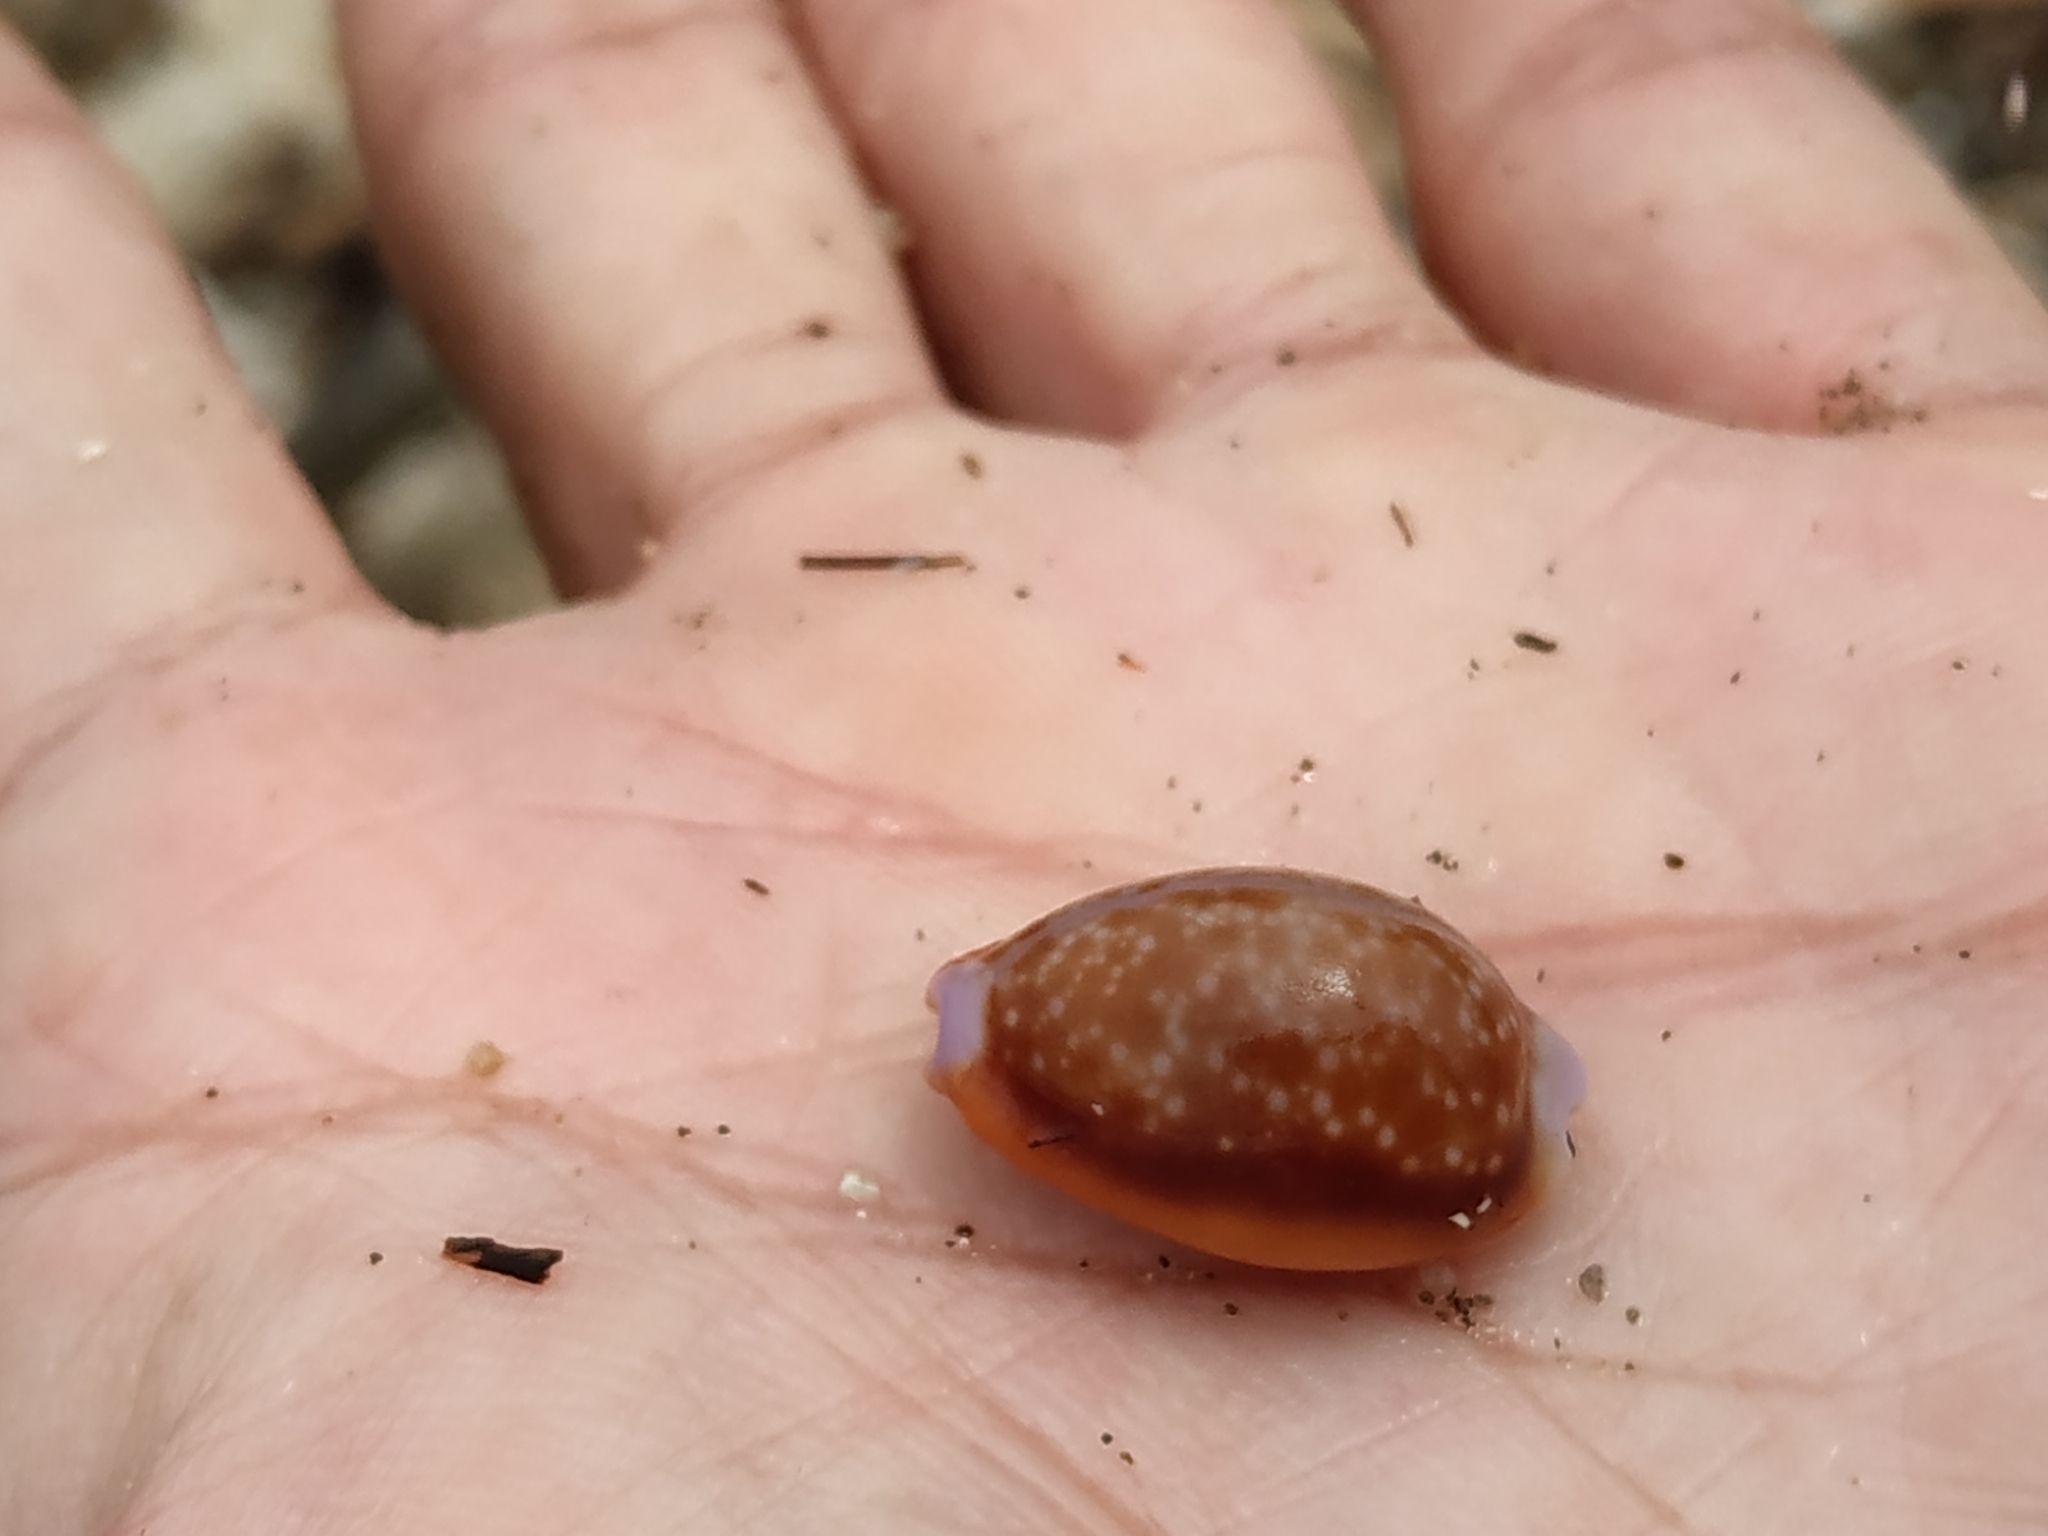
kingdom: Animalia
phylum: Mollusca
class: Gastropoda
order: Littorinimorpha
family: Cypraeidae
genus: Naria
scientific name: Naria helvola
